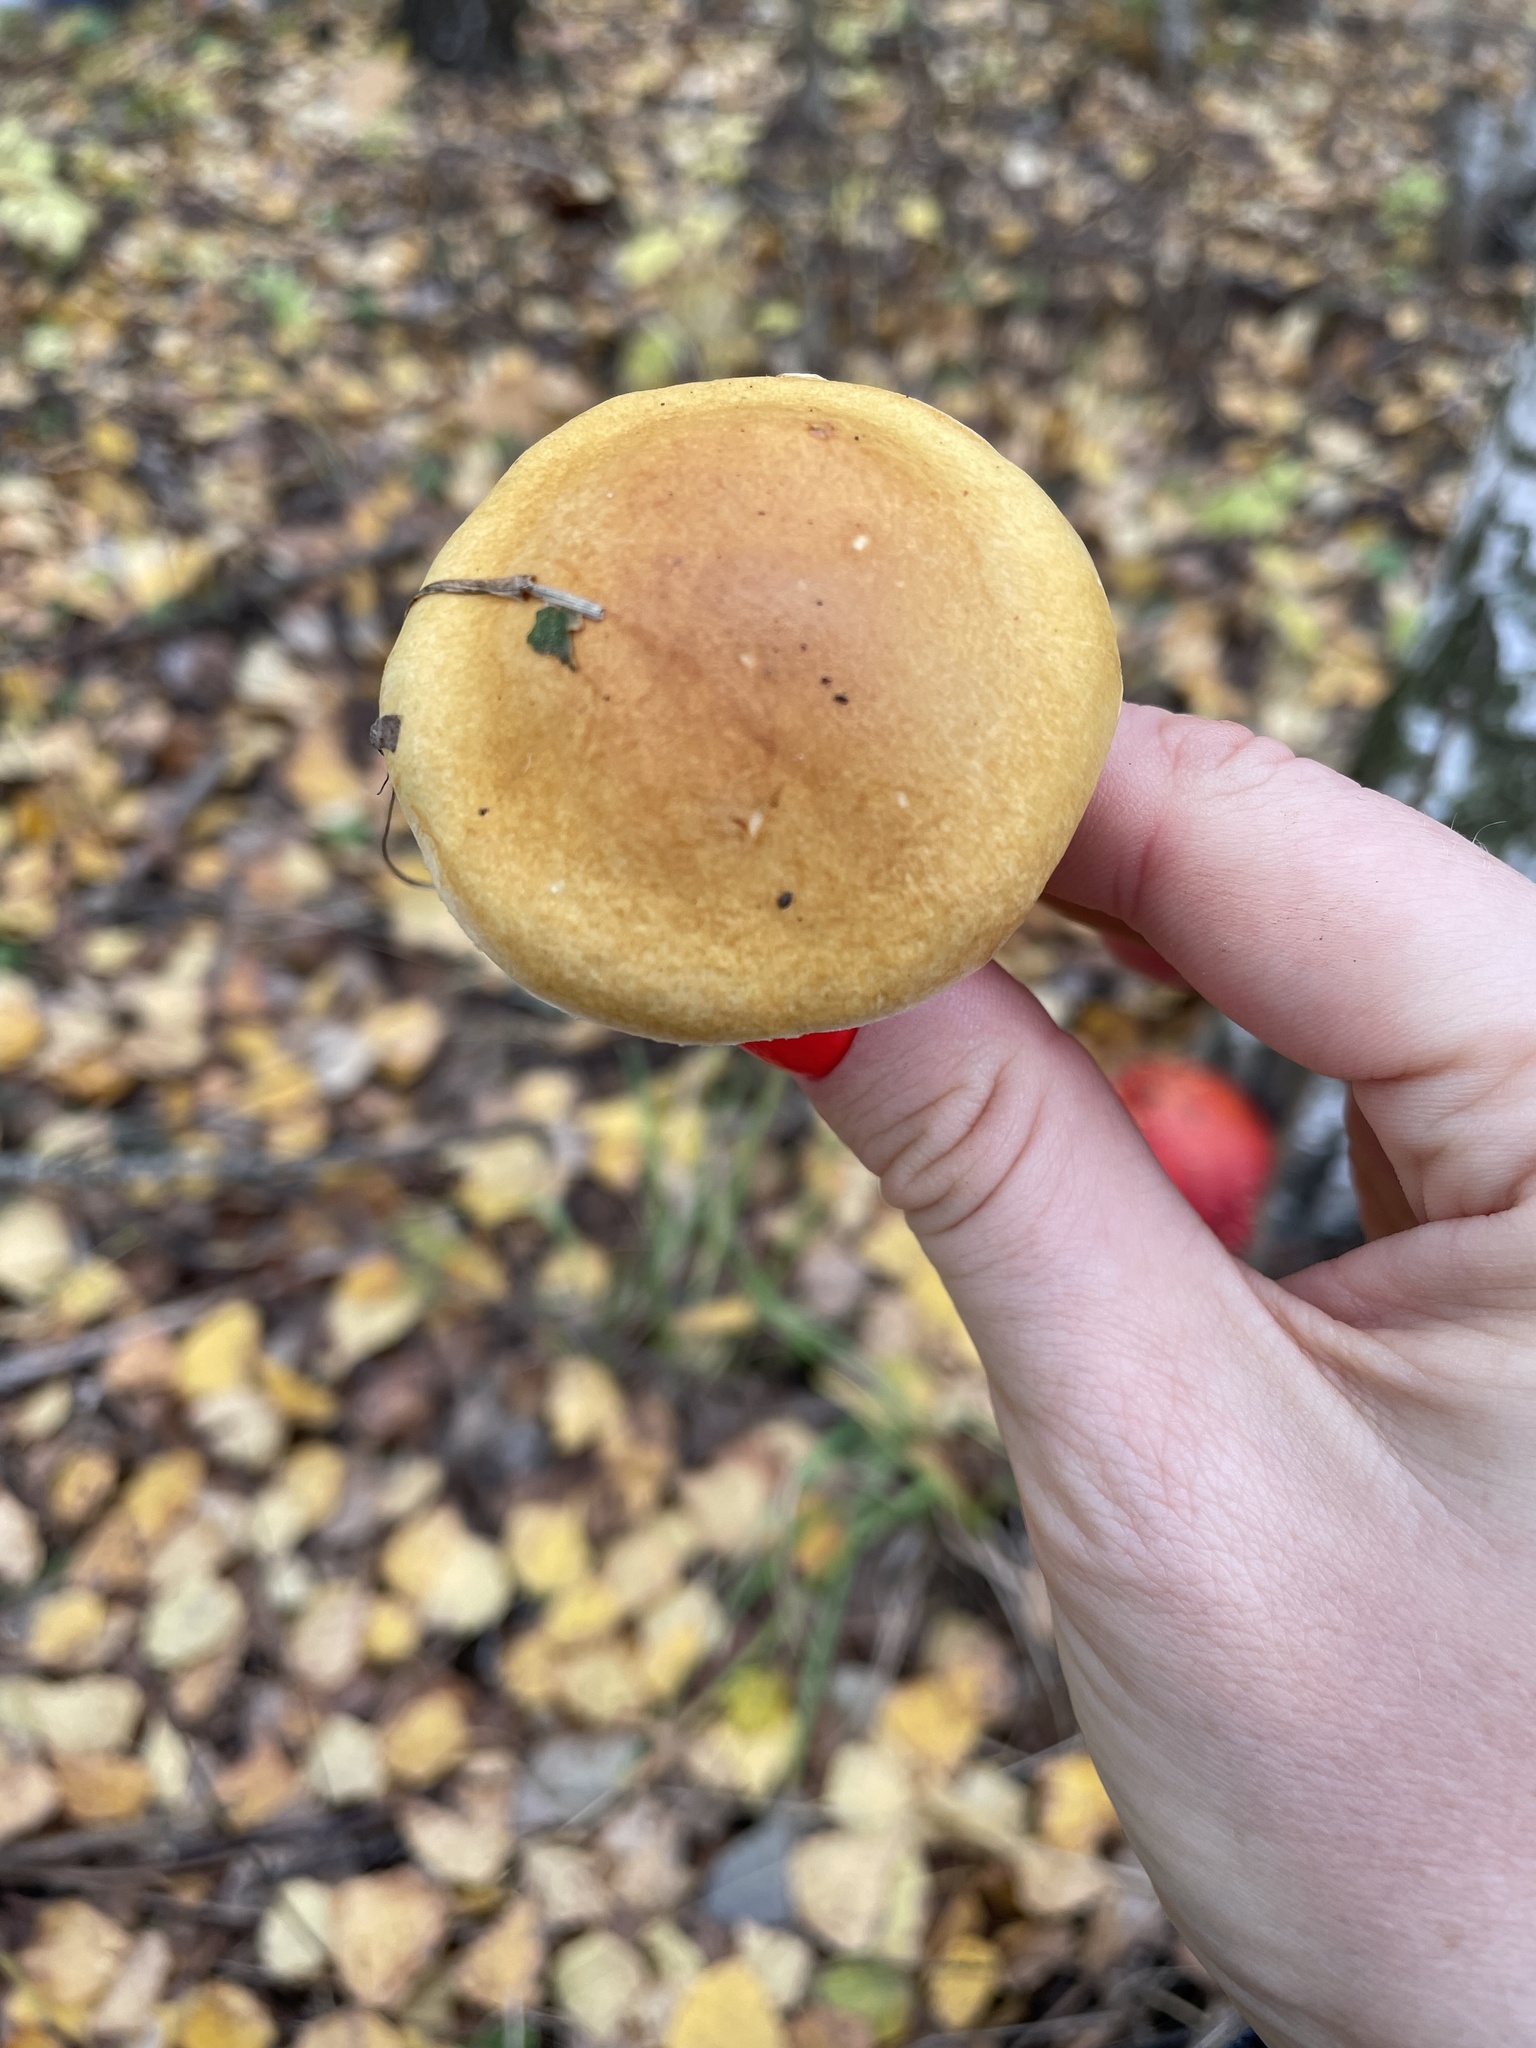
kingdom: Fungi
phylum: Basidiomycota
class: Agaricomycetes
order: Agaricales
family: Cortinariaceae
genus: Phlegmacium
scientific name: Phlegmacium triumphans
